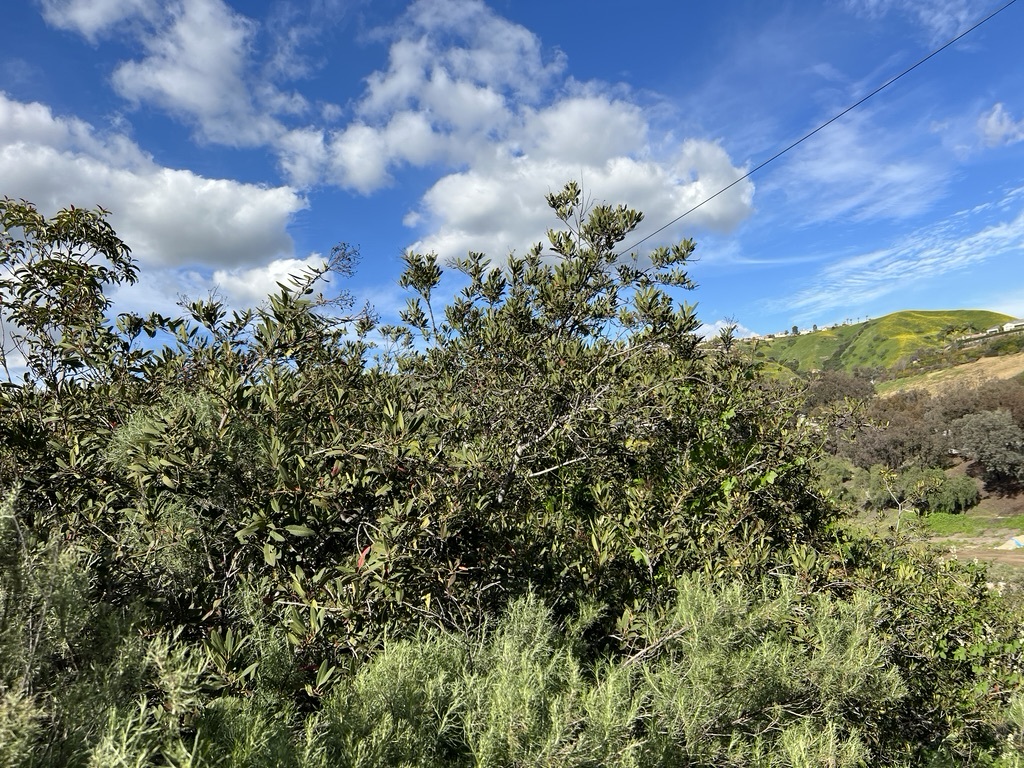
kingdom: Plantae
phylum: Tracheophyta
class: Magnoliopsida
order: Rosales
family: Rosaceae
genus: Heteromeles
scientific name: Heteromeles arbutifolia
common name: California-holly
